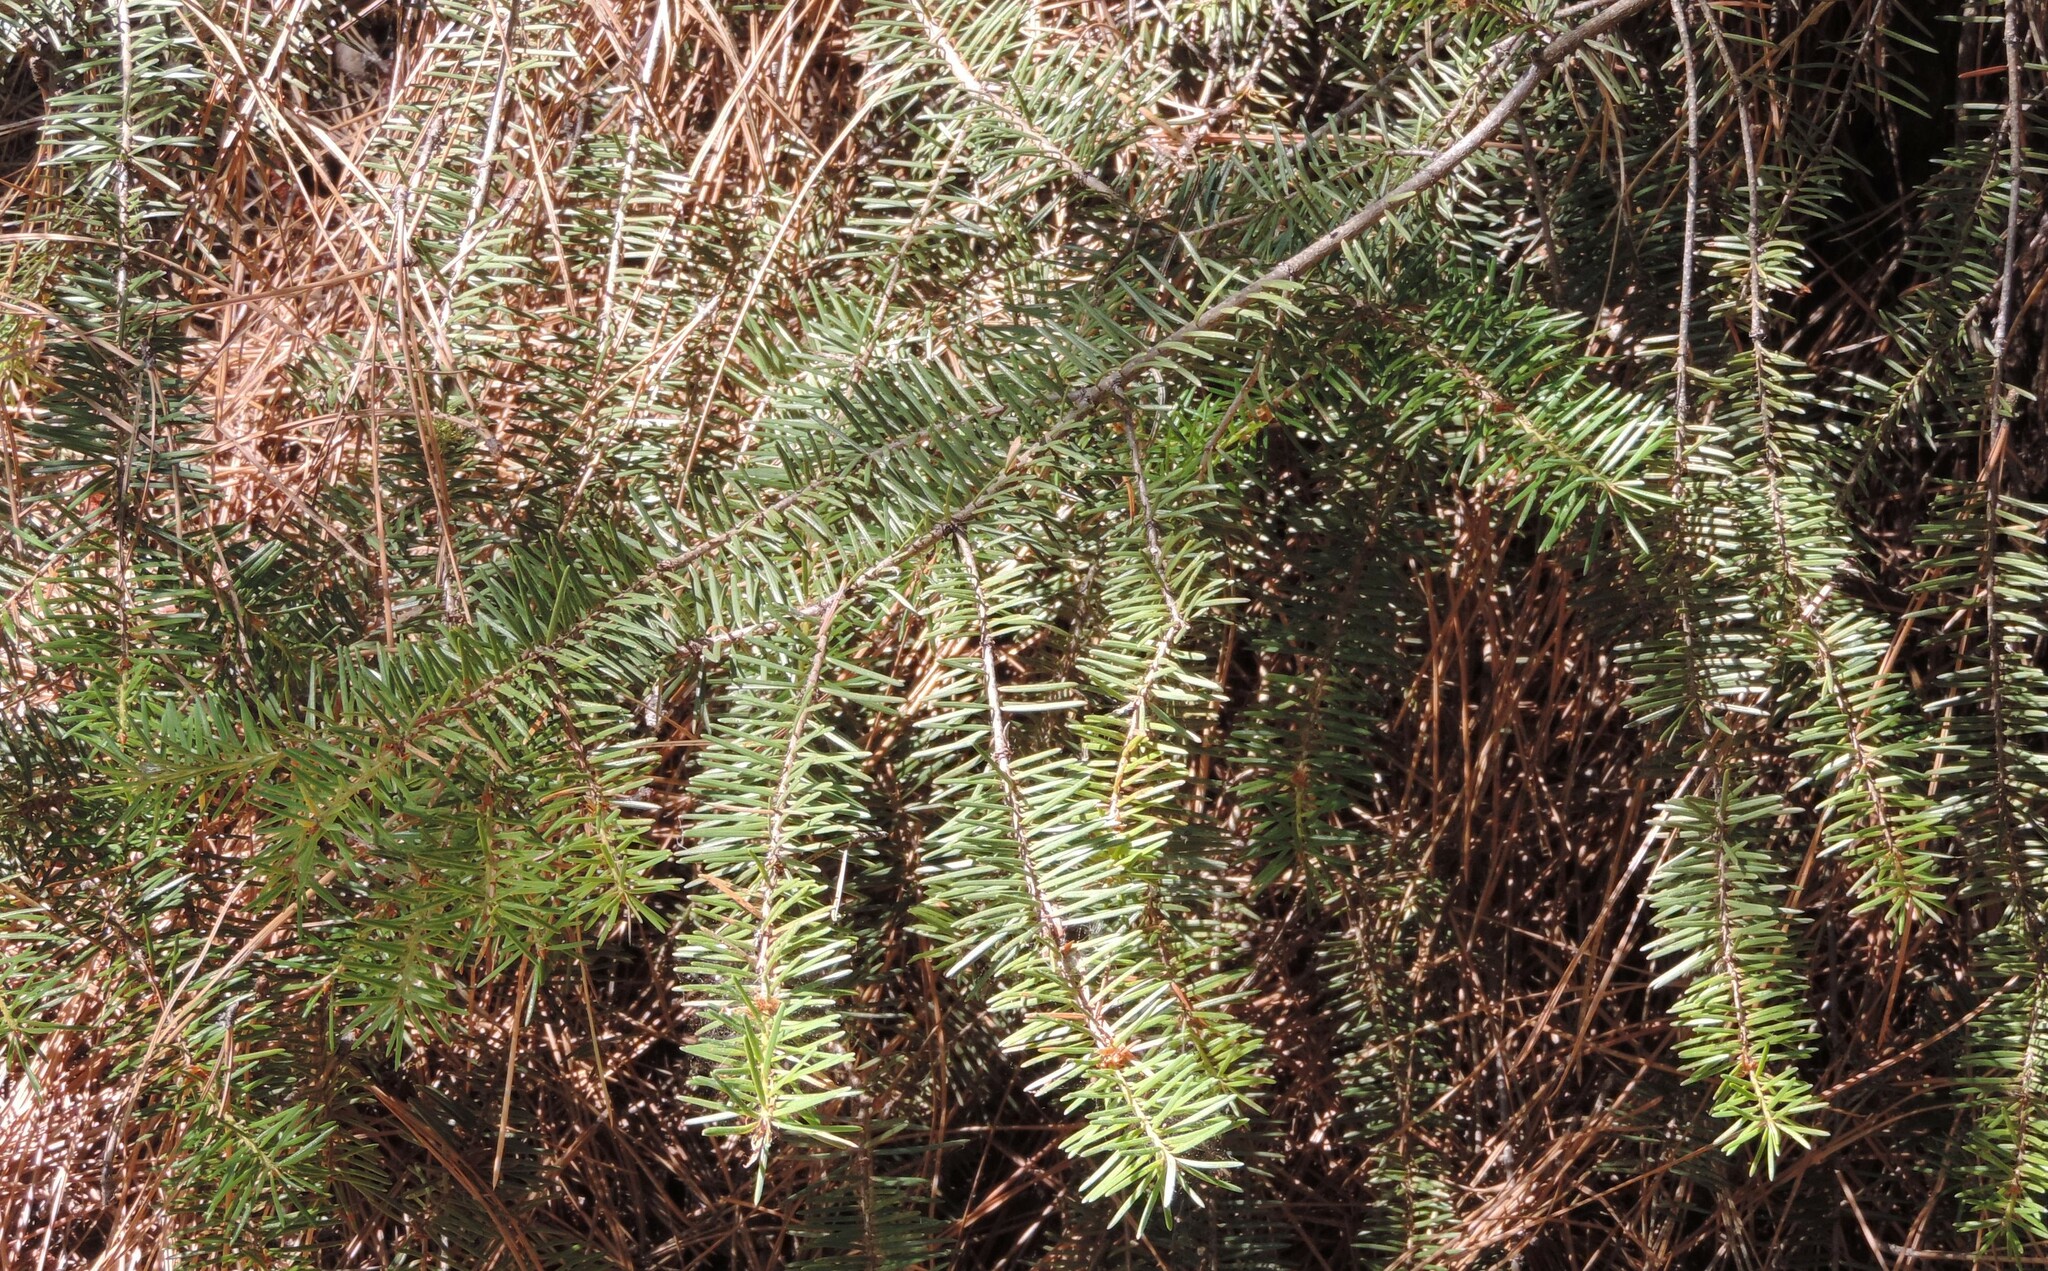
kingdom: Plantae
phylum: Tracheophyta
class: Pinopsida
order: Pinales
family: Pinaceae
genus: Pseudotsuga
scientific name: Pseudotsuga menziesii
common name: Douglas fir
